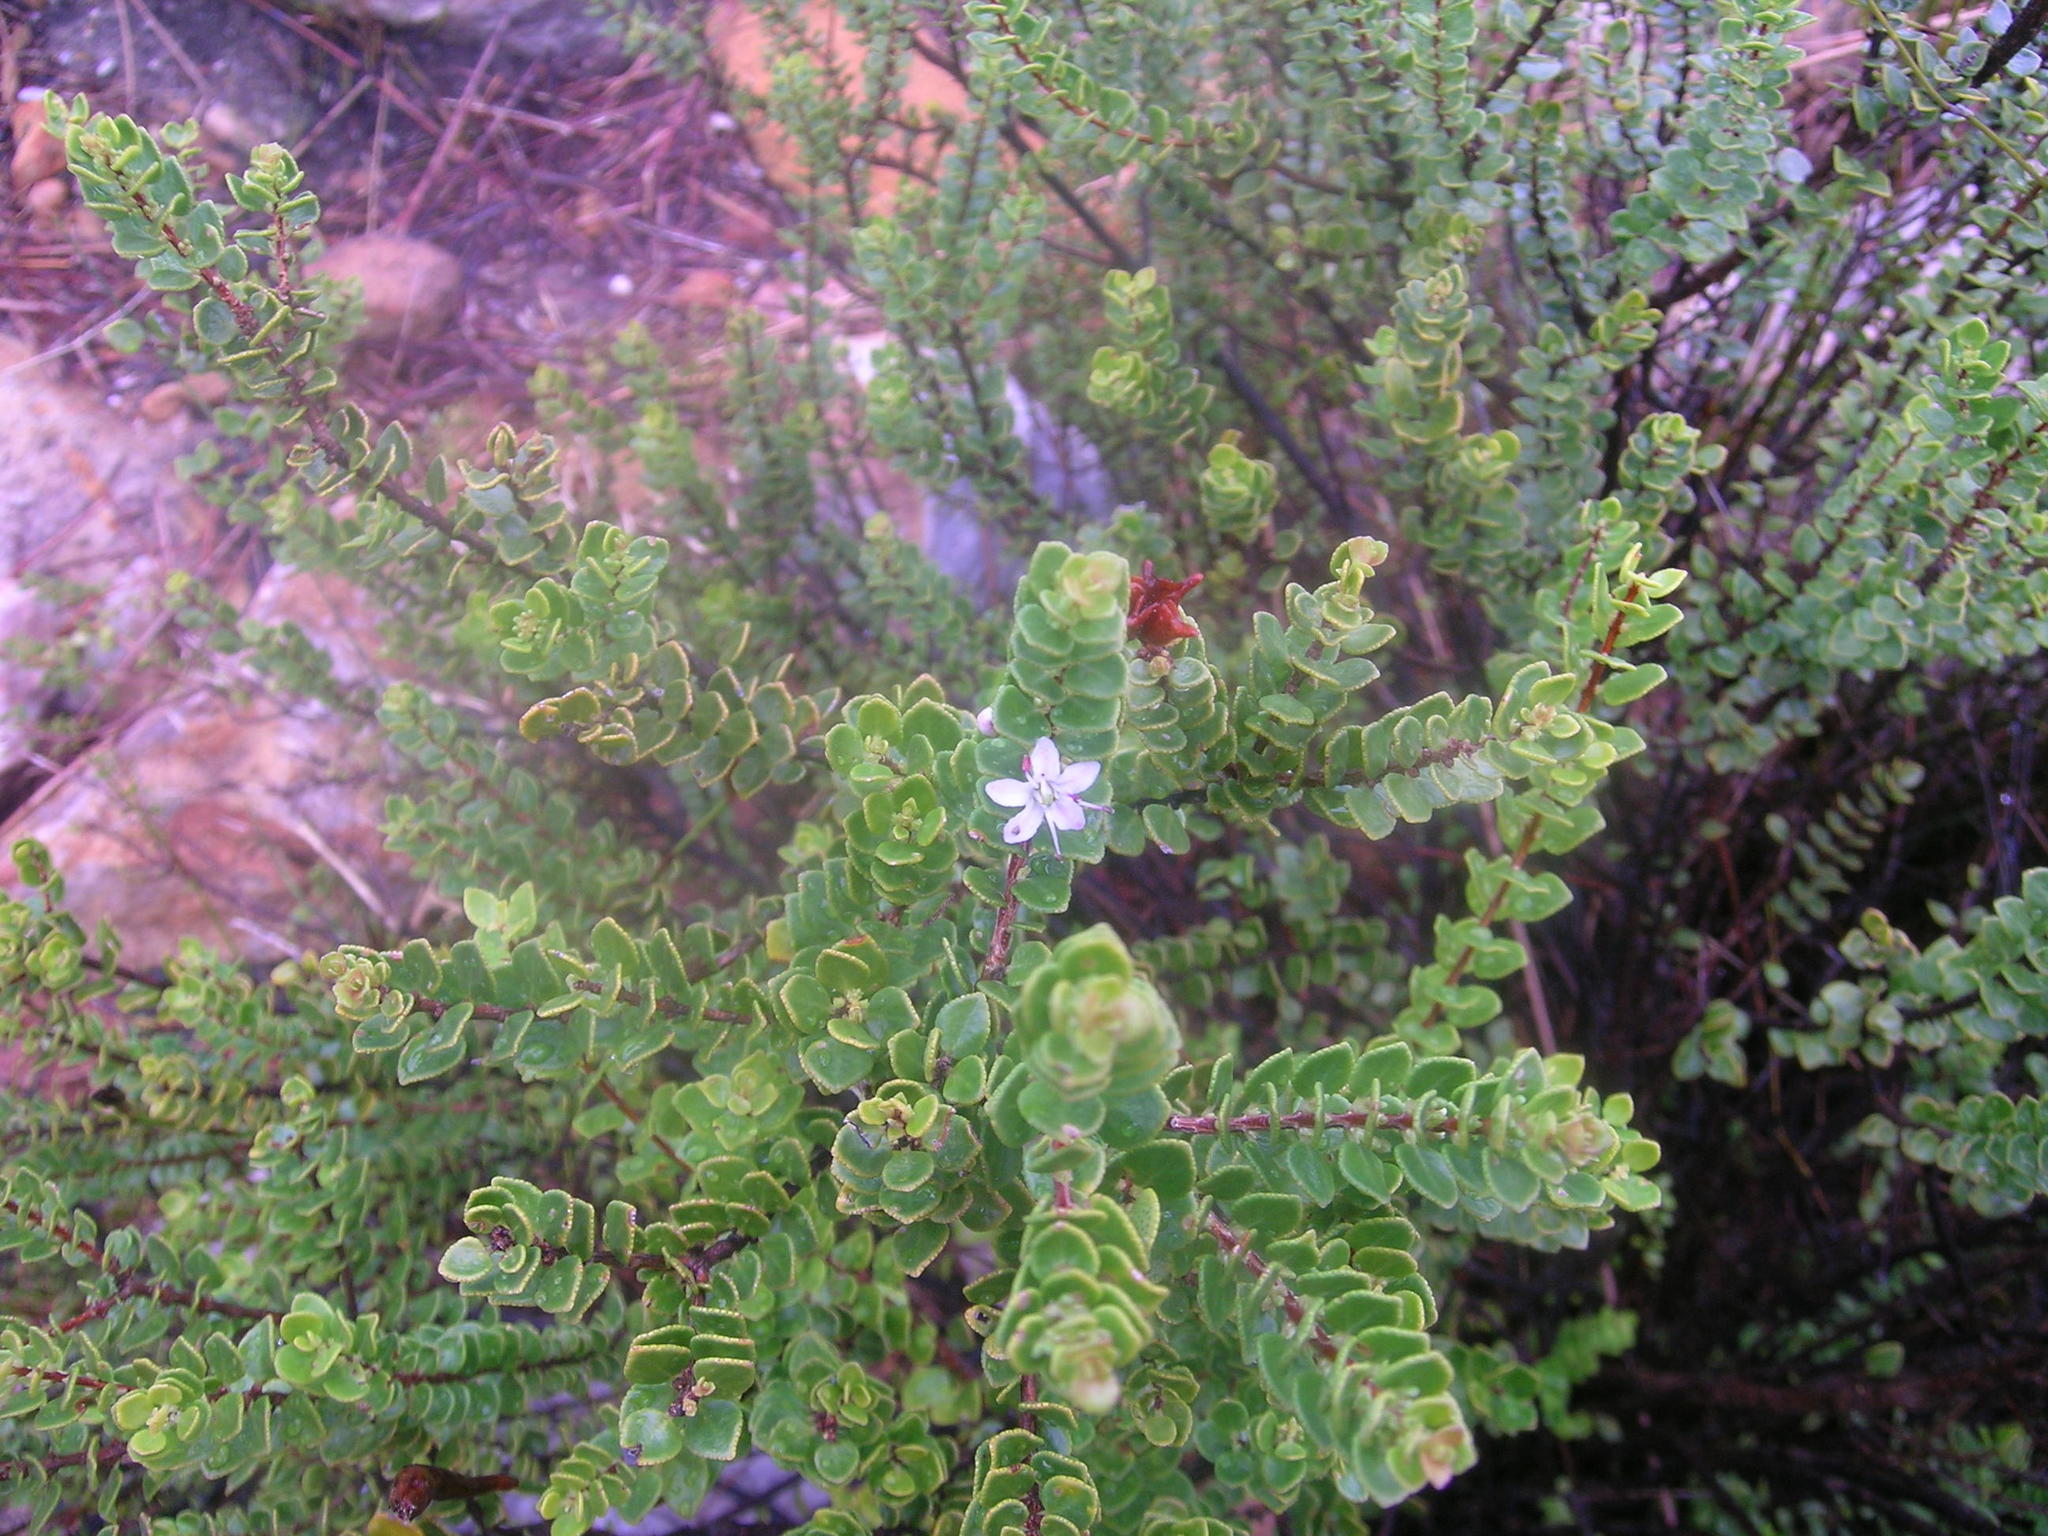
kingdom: Plantae
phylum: Tracheophyta
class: Magnoliopsida
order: Sapindales
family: Rutaceae
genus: Agathosma
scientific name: Agathosma ovata
